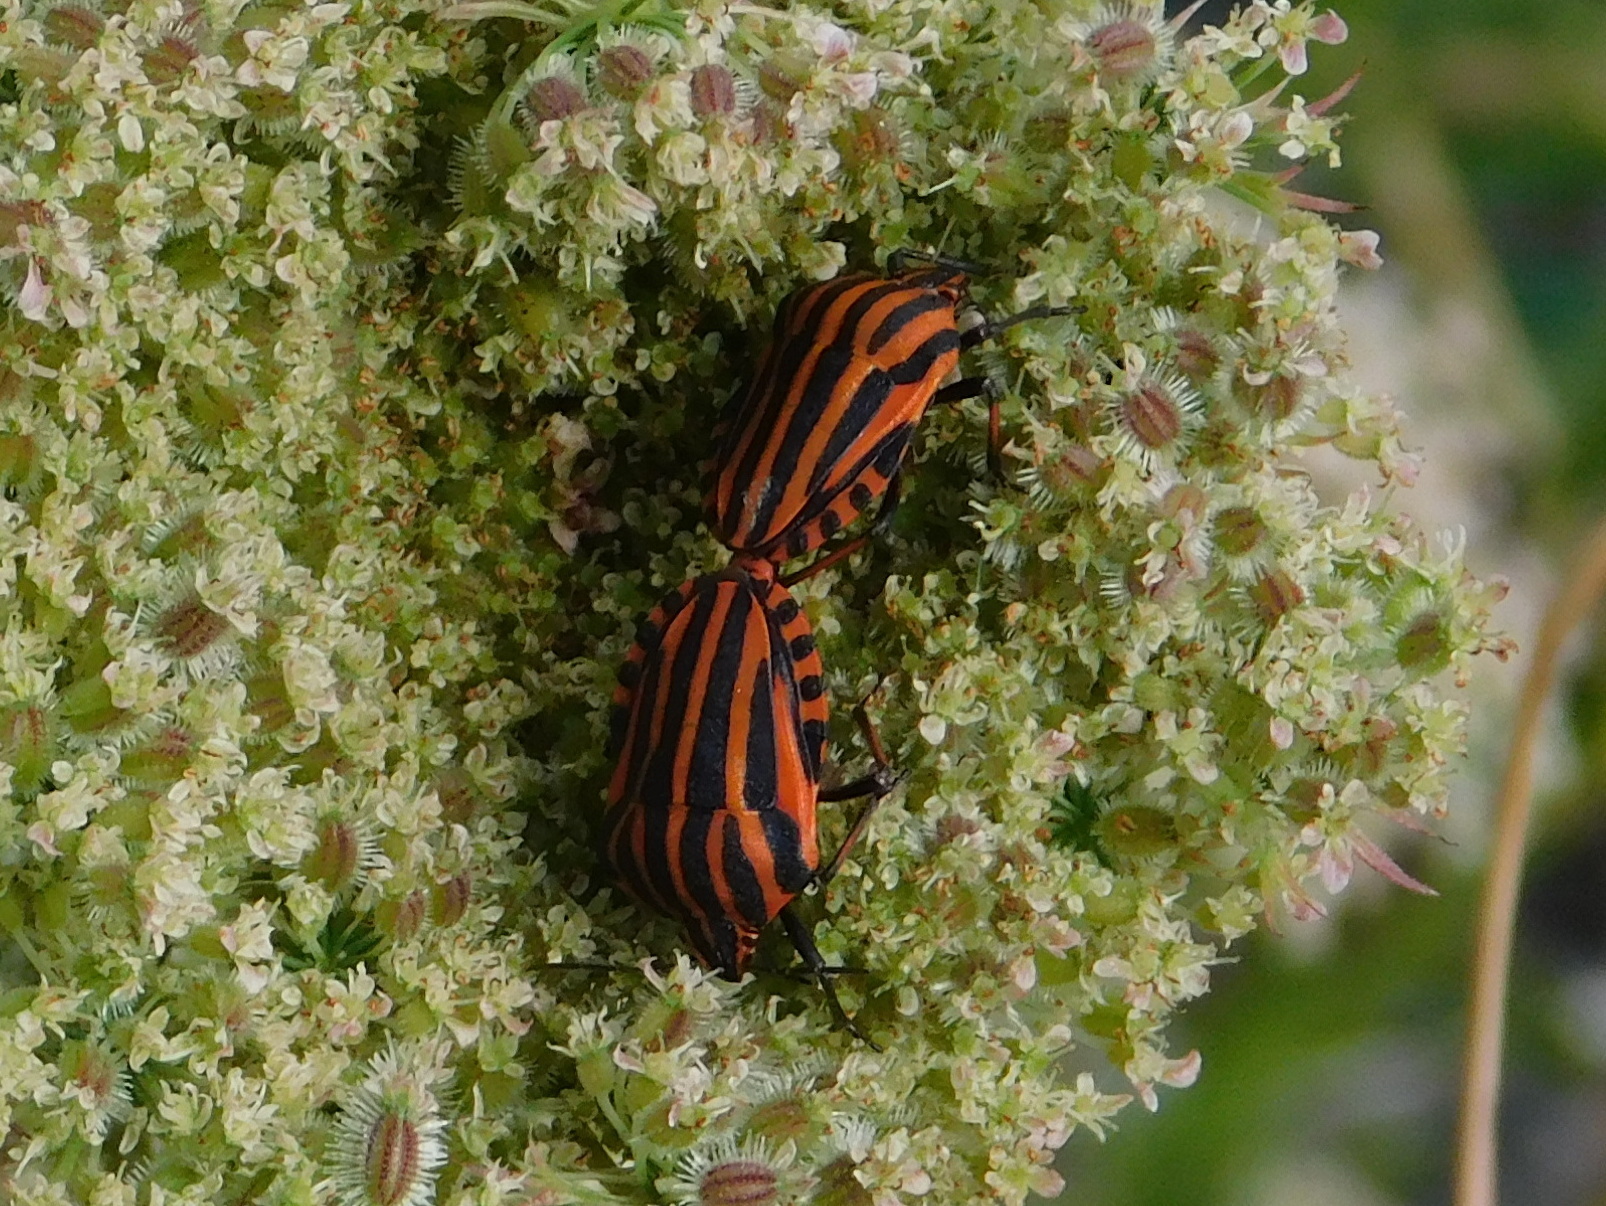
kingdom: Animalia
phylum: Arthropoda
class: Insecta
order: Hemiptera
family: Pentatomidae
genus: Graphosoma
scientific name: Graphosoma italicum
